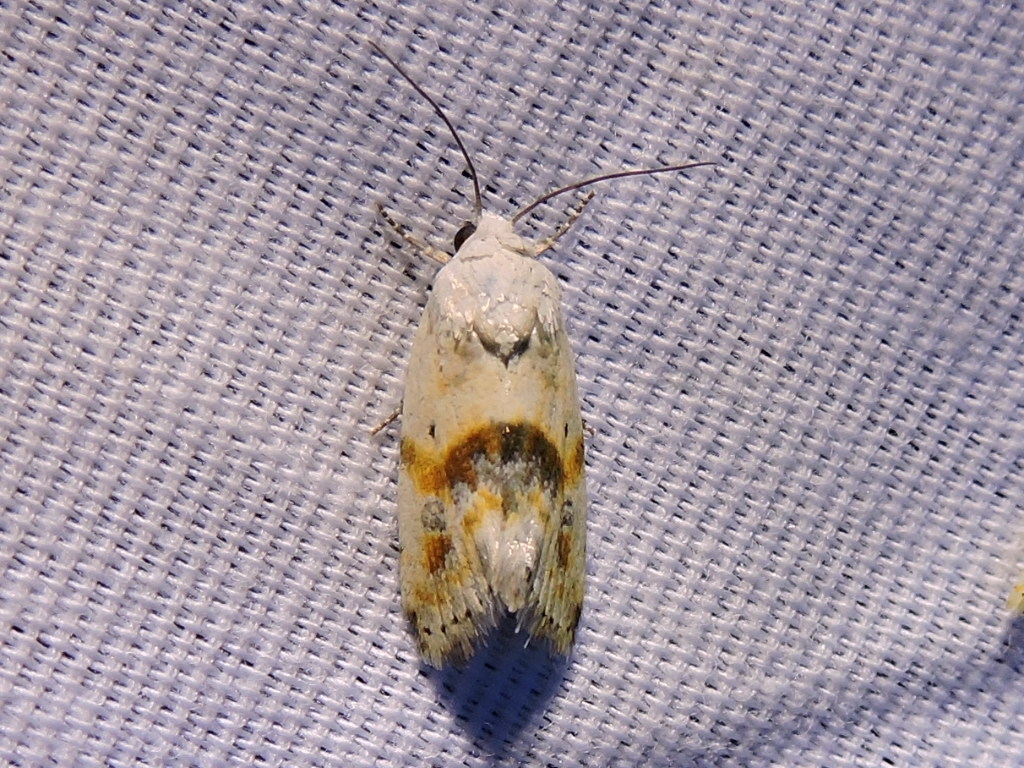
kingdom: Animalia
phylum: Arthropoda
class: Insecta
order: Lepidoptera
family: Noctuidae
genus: Acontia
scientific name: Acontia candefacta
